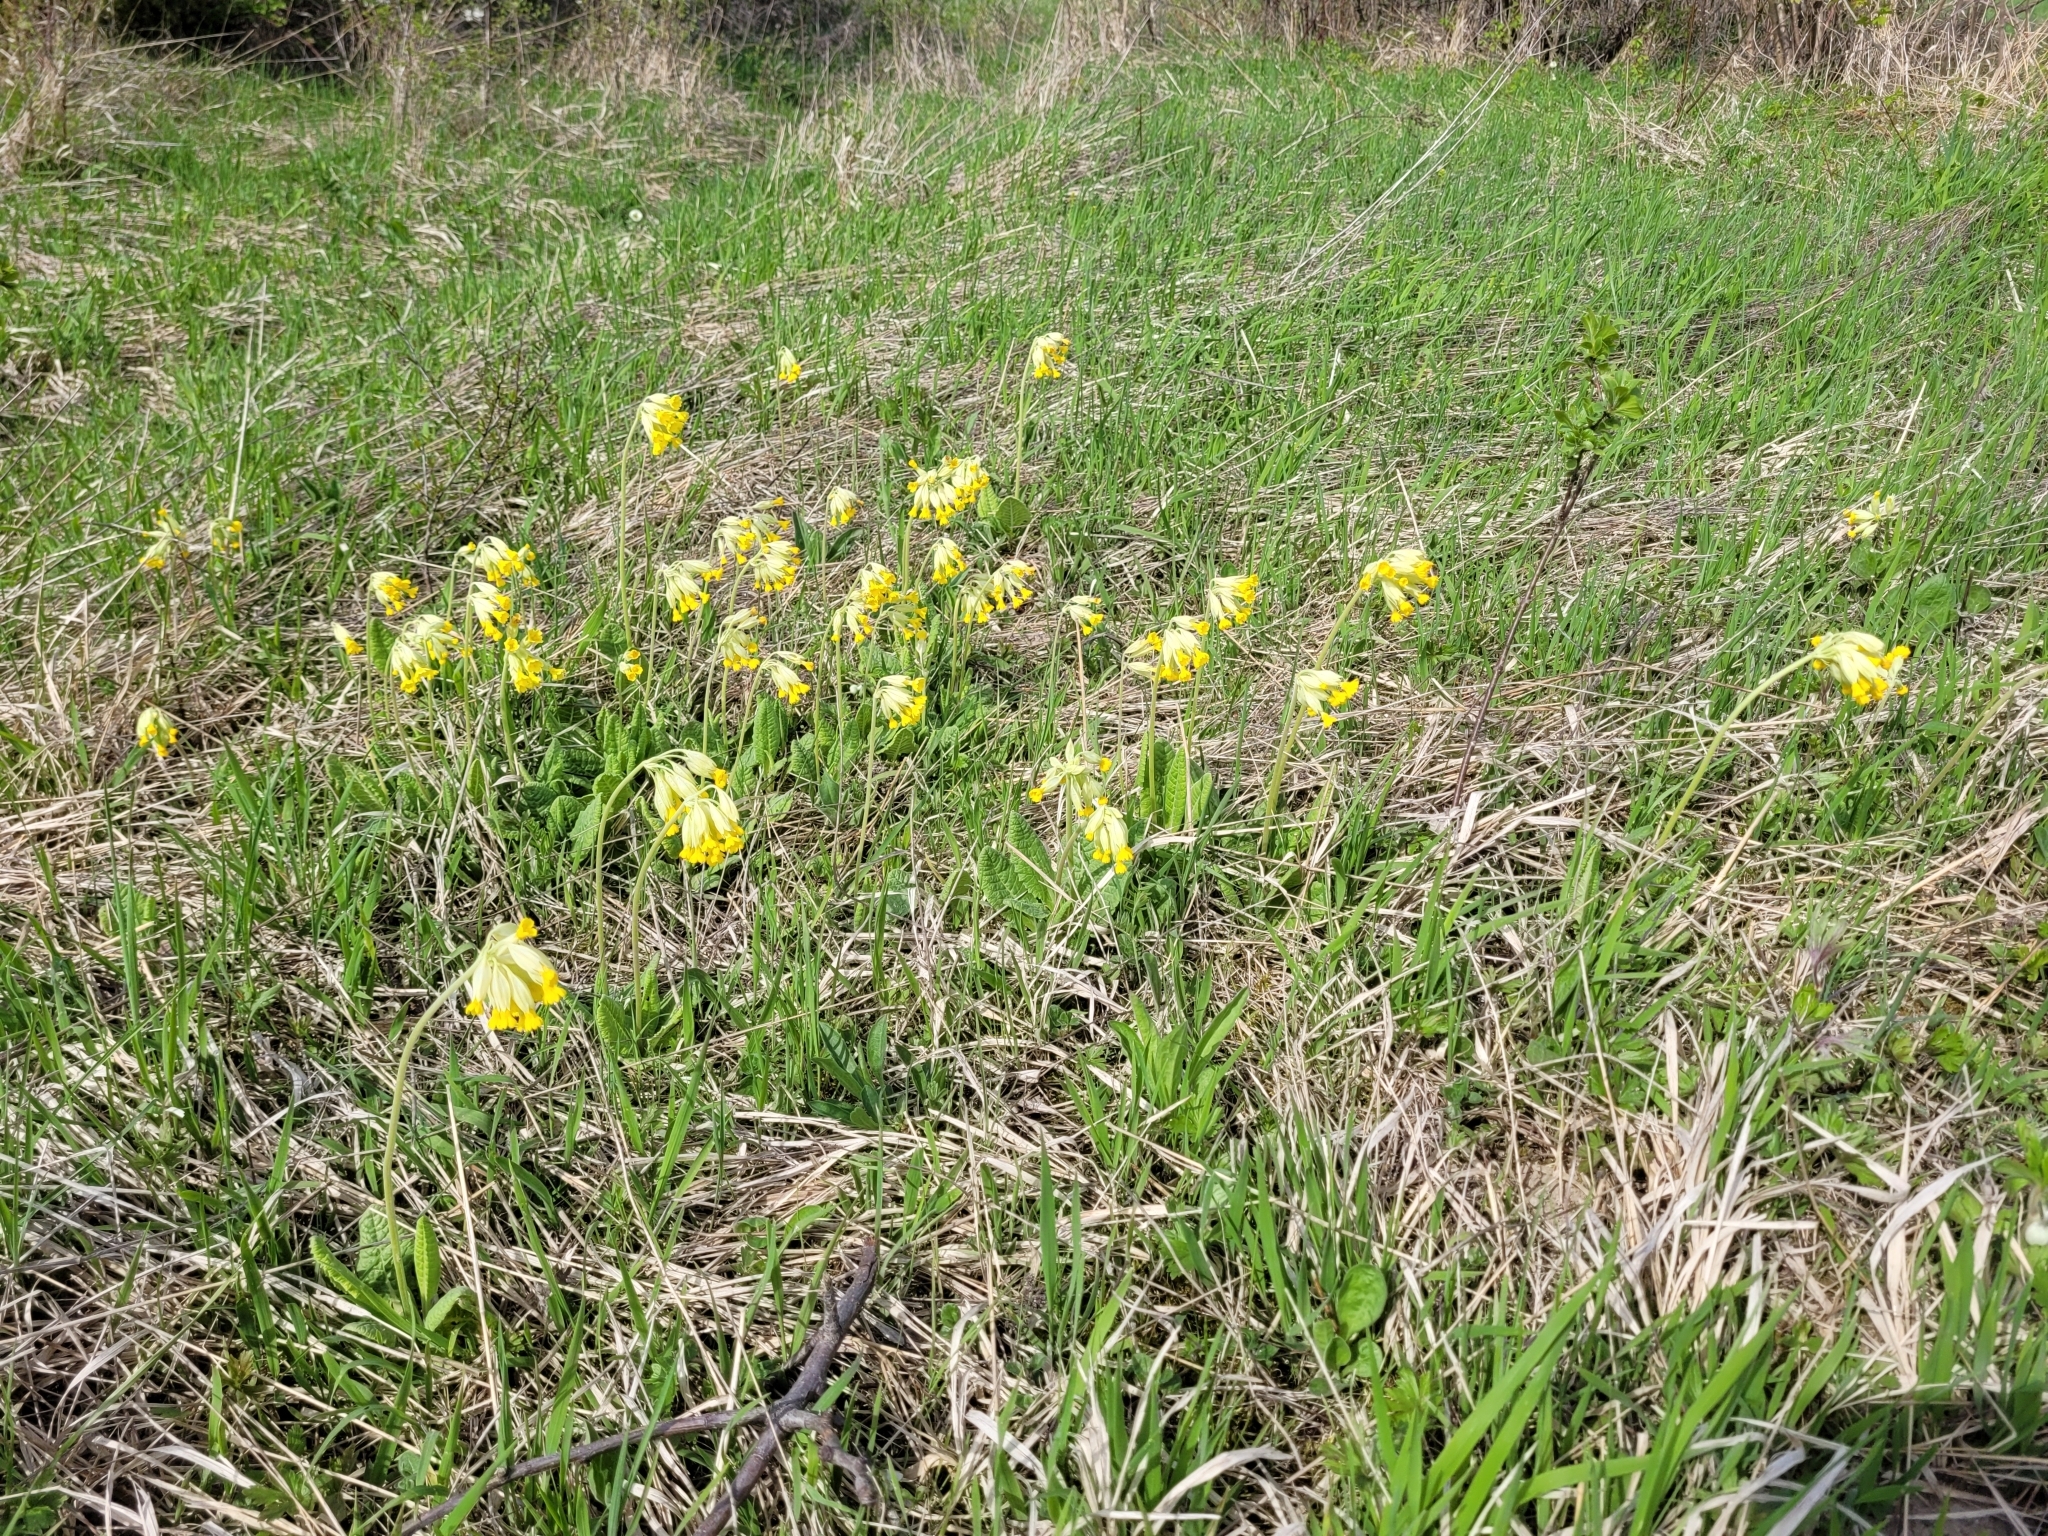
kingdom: Plantae
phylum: Tracheophyta
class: Magnoliopsida
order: Ericales
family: Primulaceae
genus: Primula
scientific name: Primula veris
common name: Cowslip
